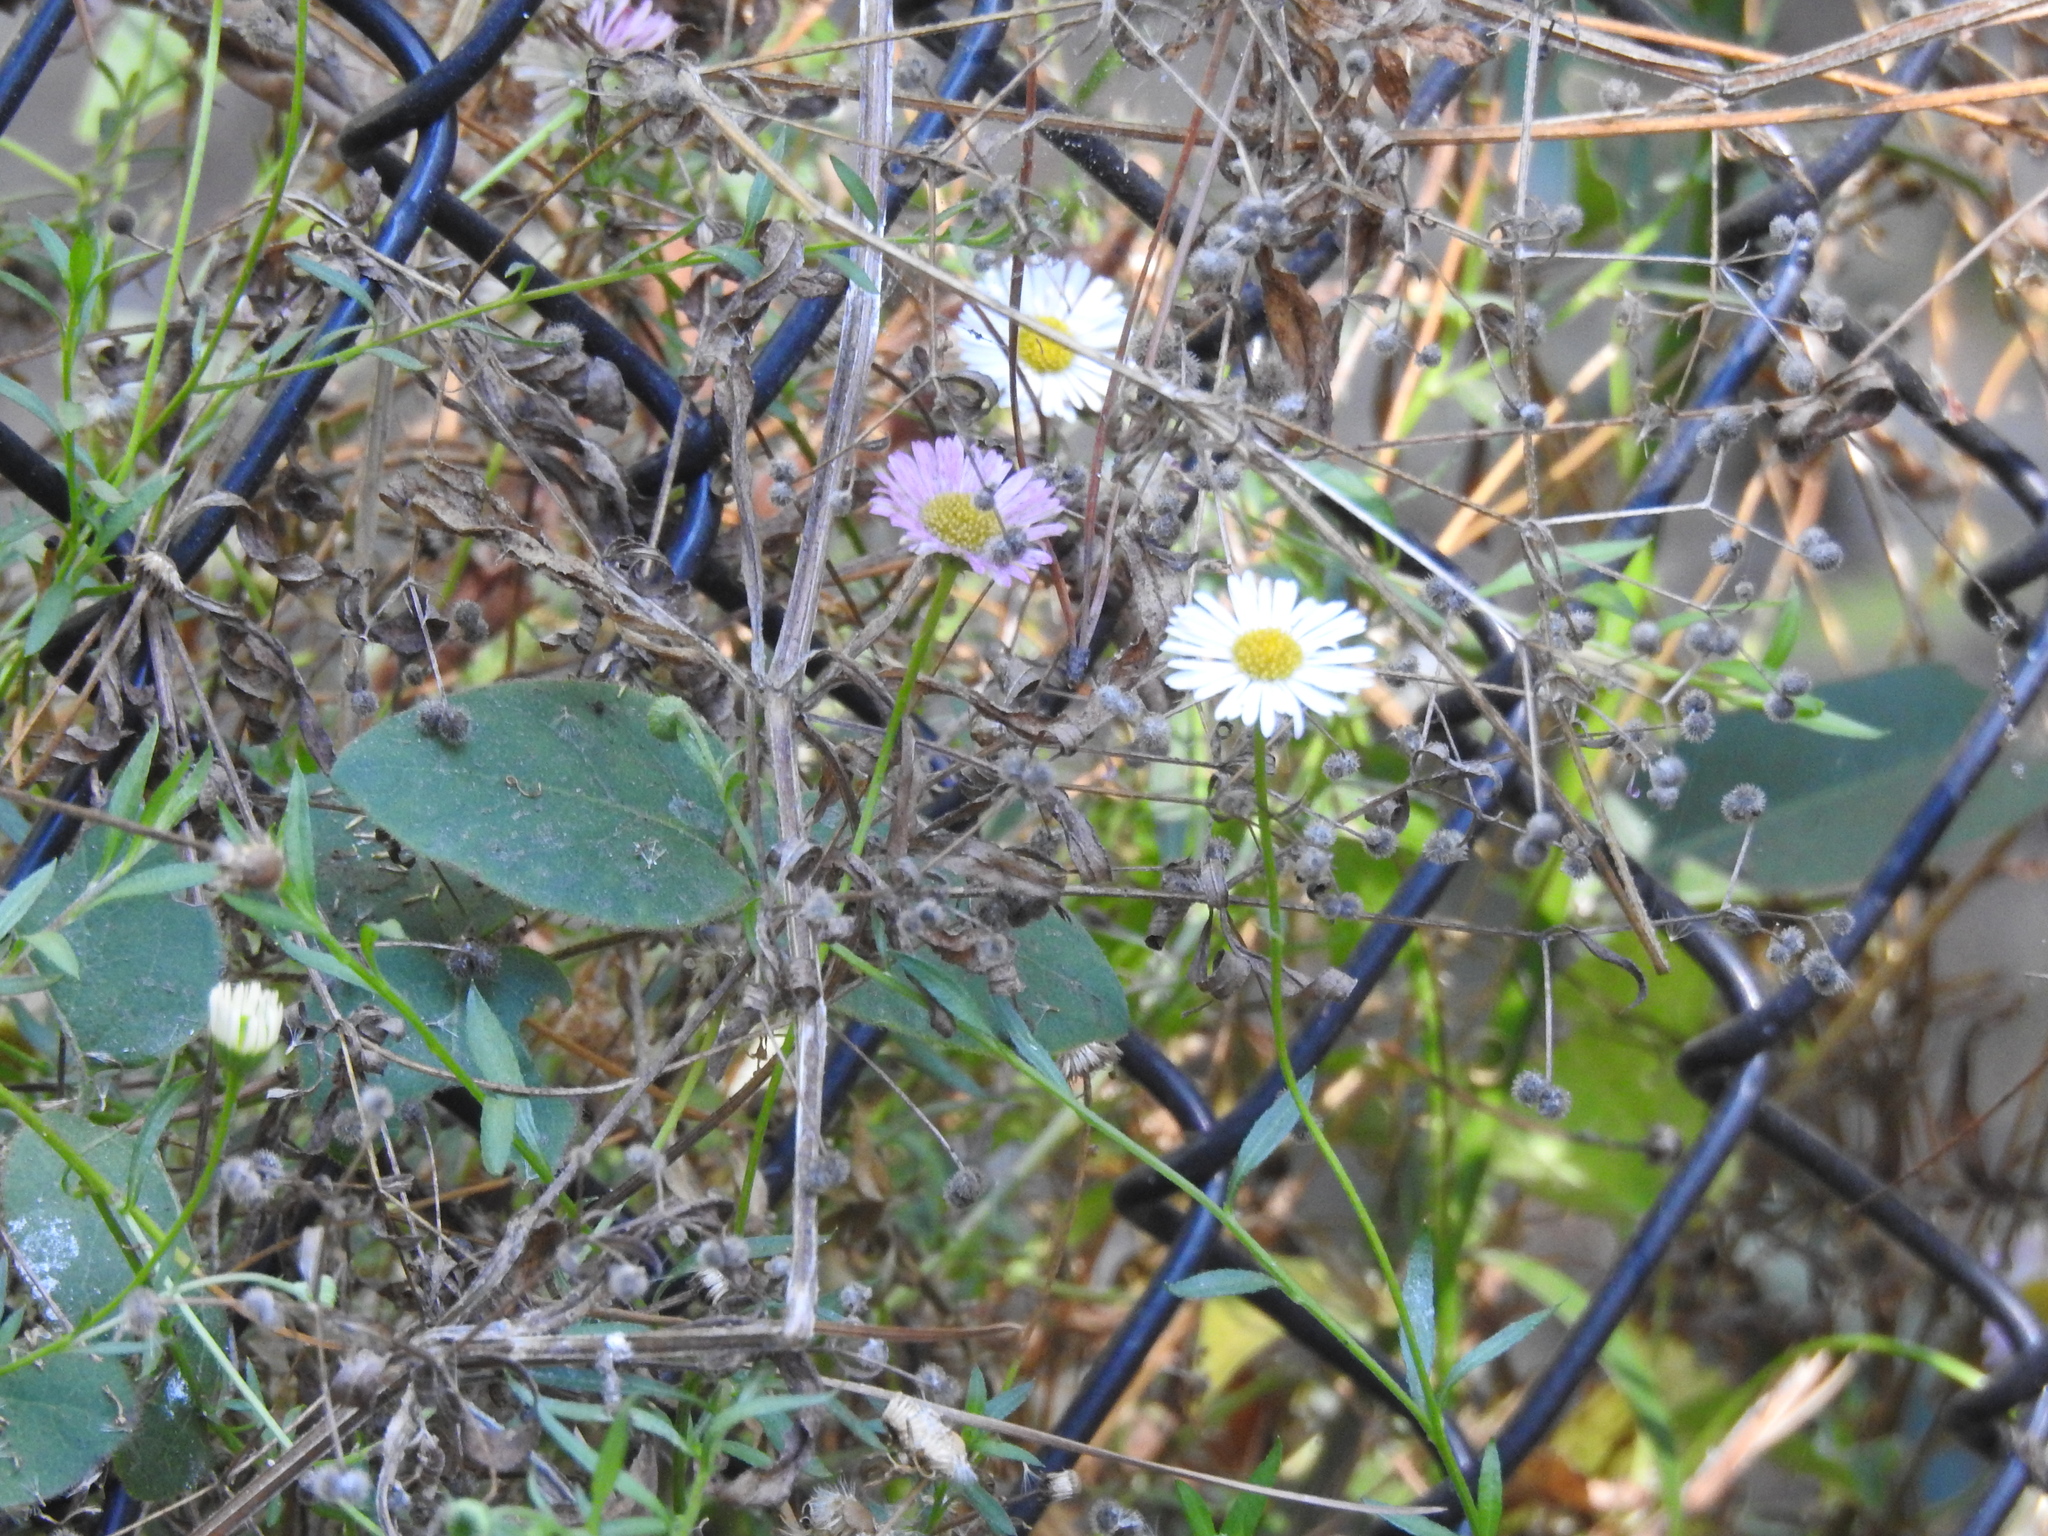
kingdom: Plantae
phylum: Tracheophyta
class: Magnoliopsida
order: Asterales
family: Asteraceae
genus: Erigeron
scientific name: Erigeron karvinskianus
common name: Mexican fleabane
